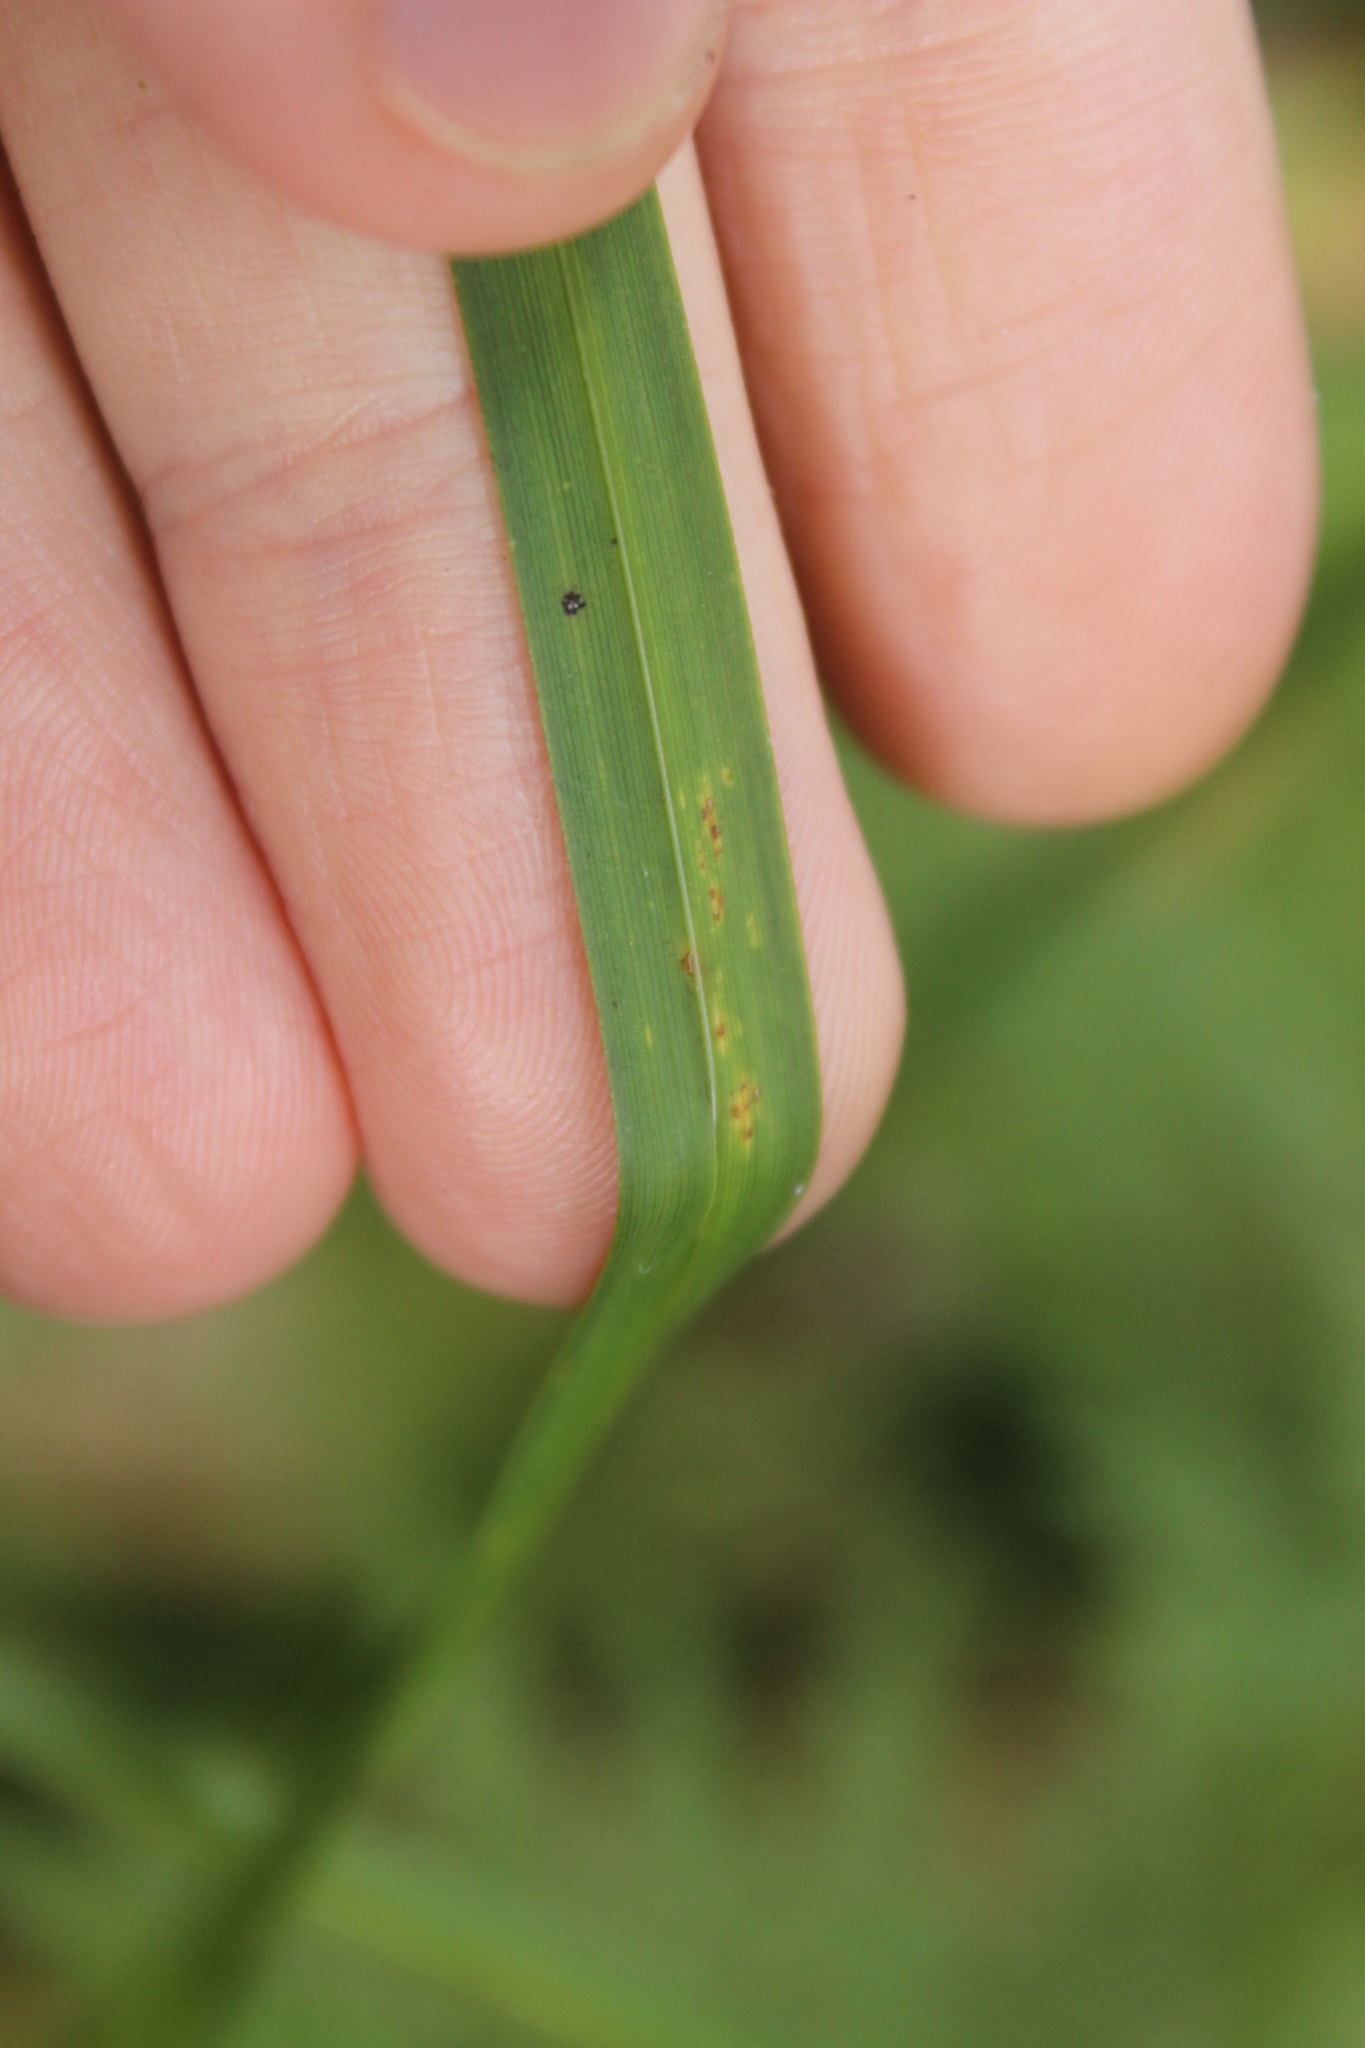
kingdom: Plantae
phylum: Tracheophyta
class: Liliopsida
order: Poales
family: Cyperaceae
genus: Carex
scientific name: Carex geminata
